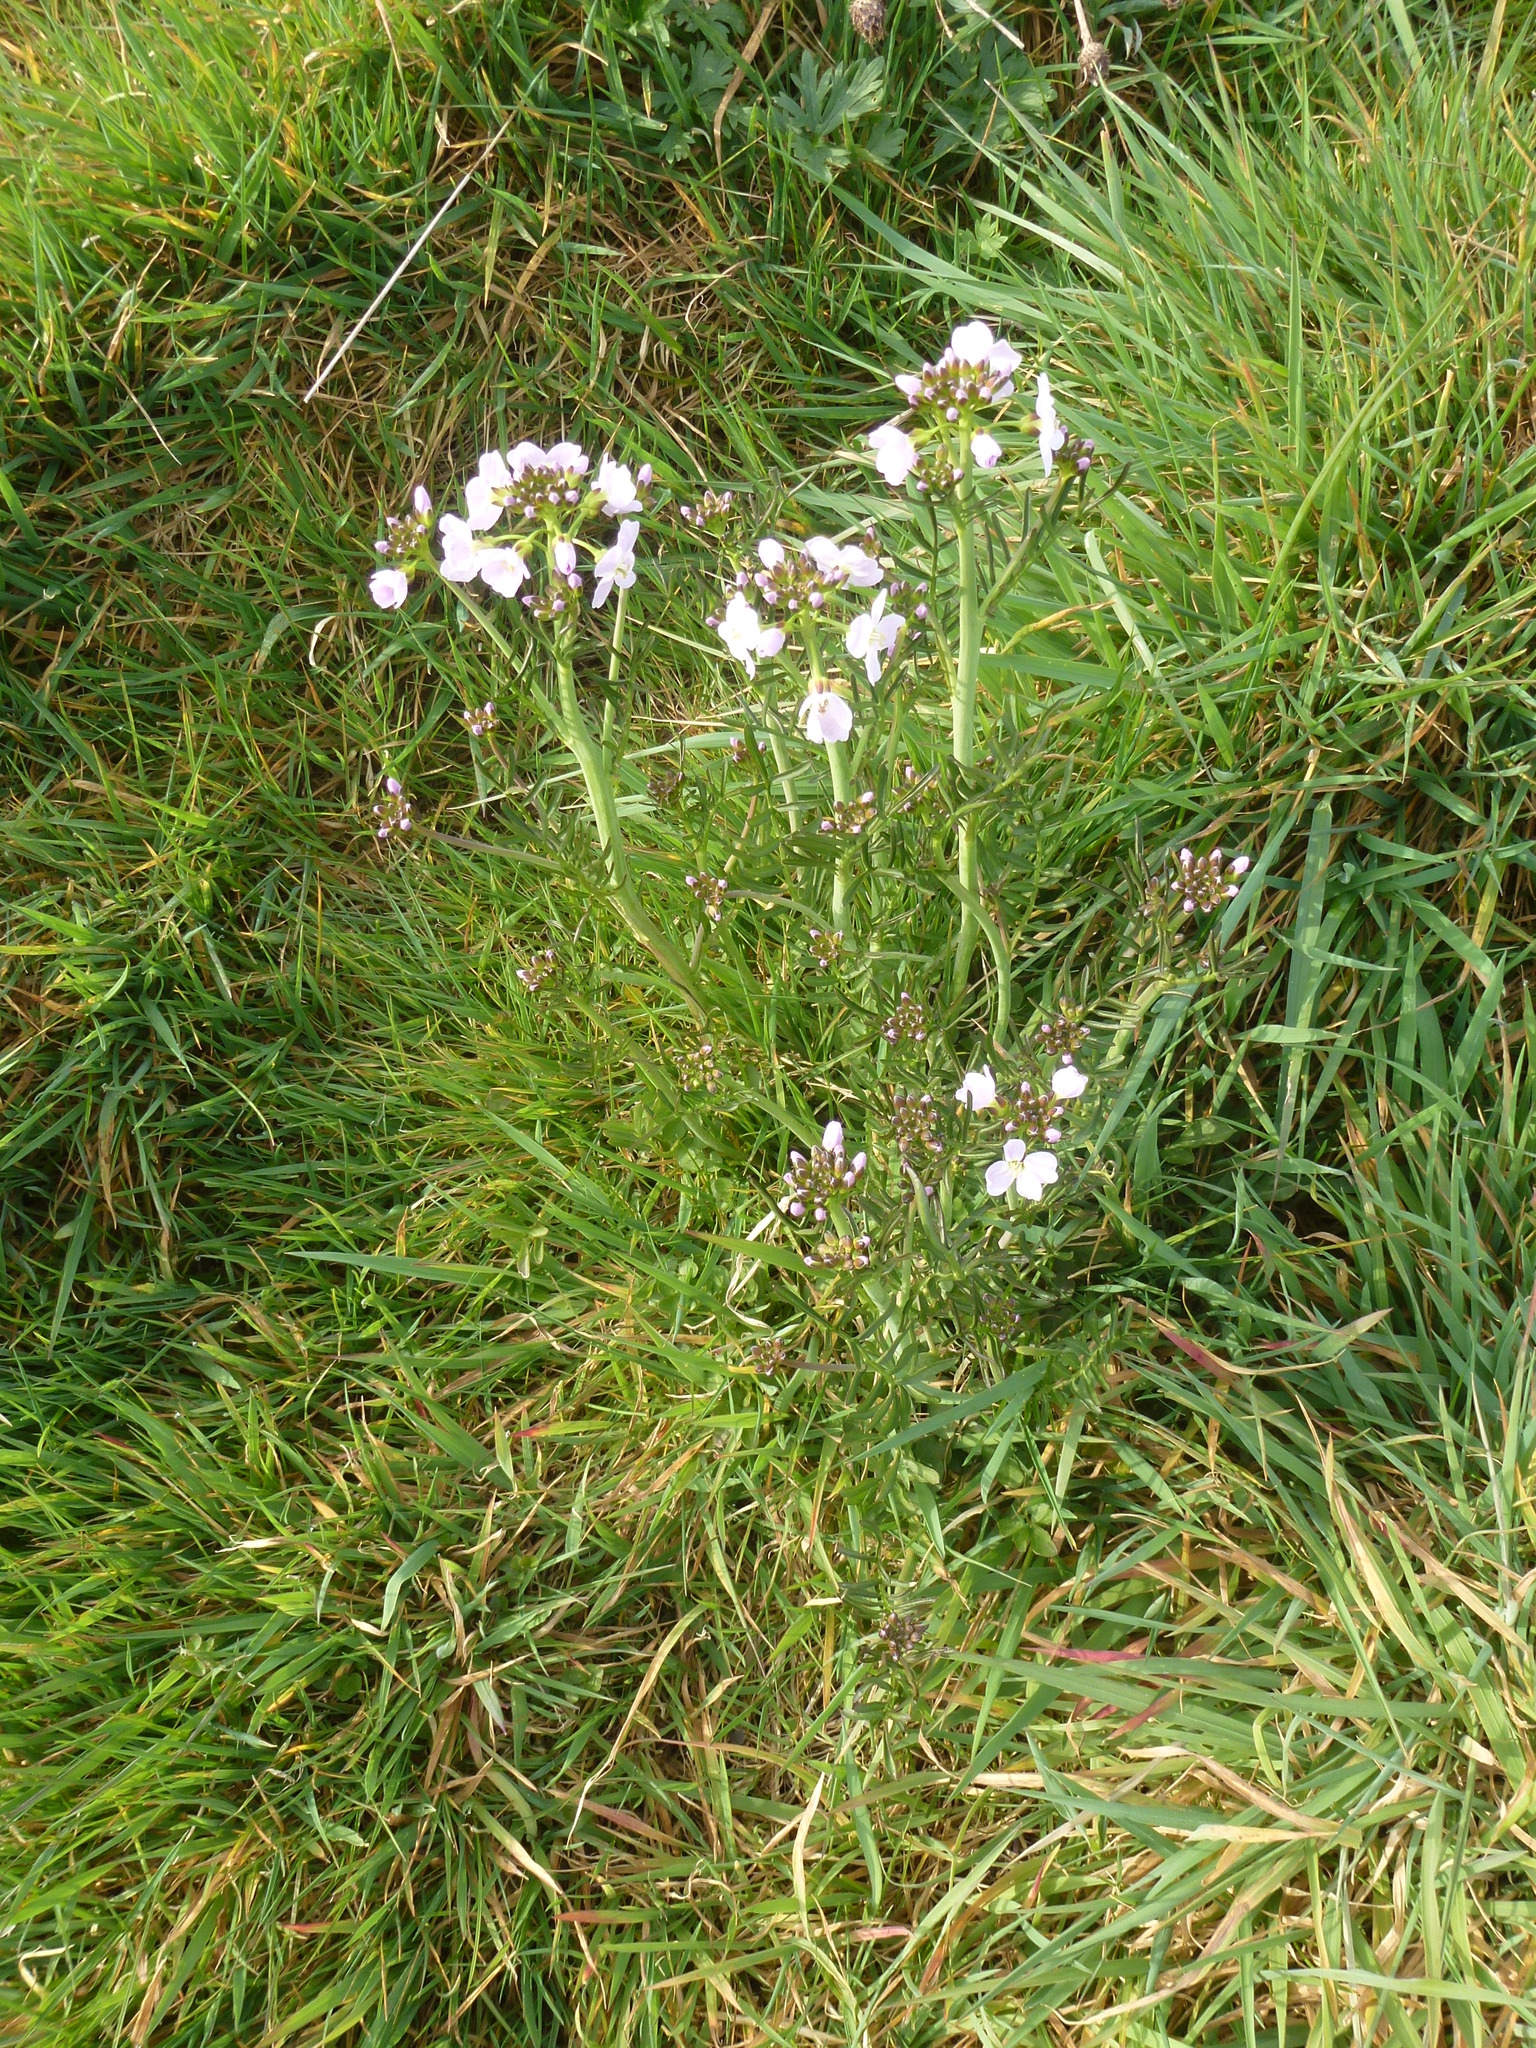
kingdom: Plantae
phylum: Tracheophyta
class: Magnoliopsida
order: Brassicales
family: Brassicaceae
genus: Cardamine
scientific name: Cardamine pratensis
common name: Cuckoo flower
